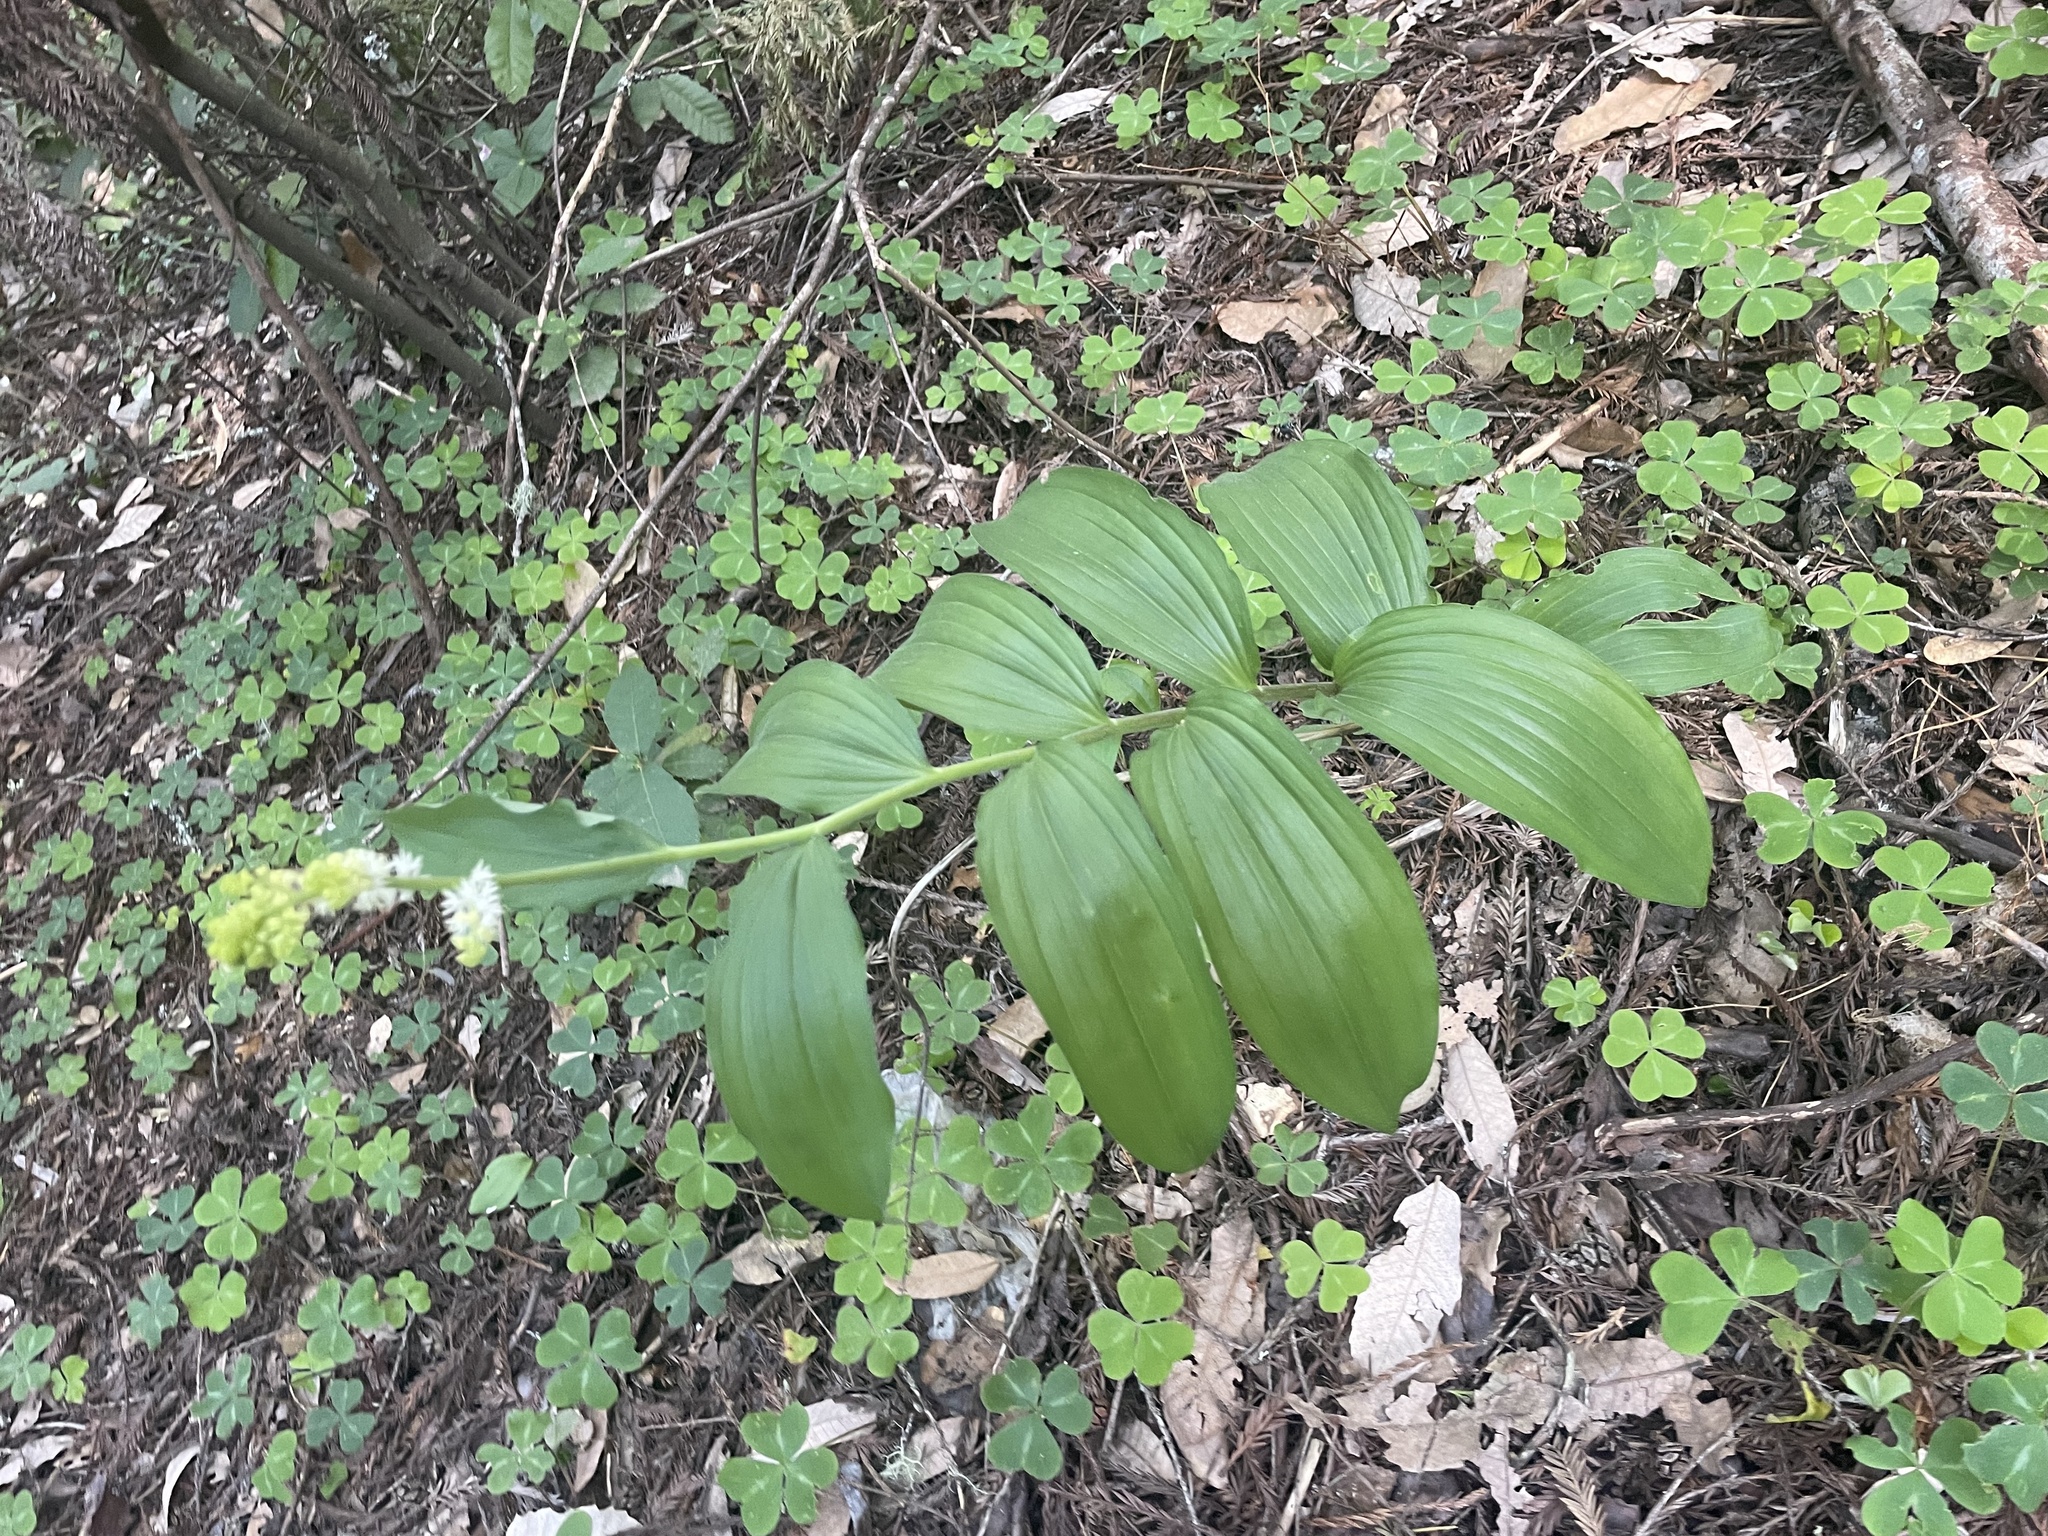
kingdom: Plantae
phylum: Tracheophyta
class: Liliopsida
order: Asparagales
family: Asparagaceae
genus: Maianthemum
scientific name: Maianthemum racemosum
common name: False spikenard
